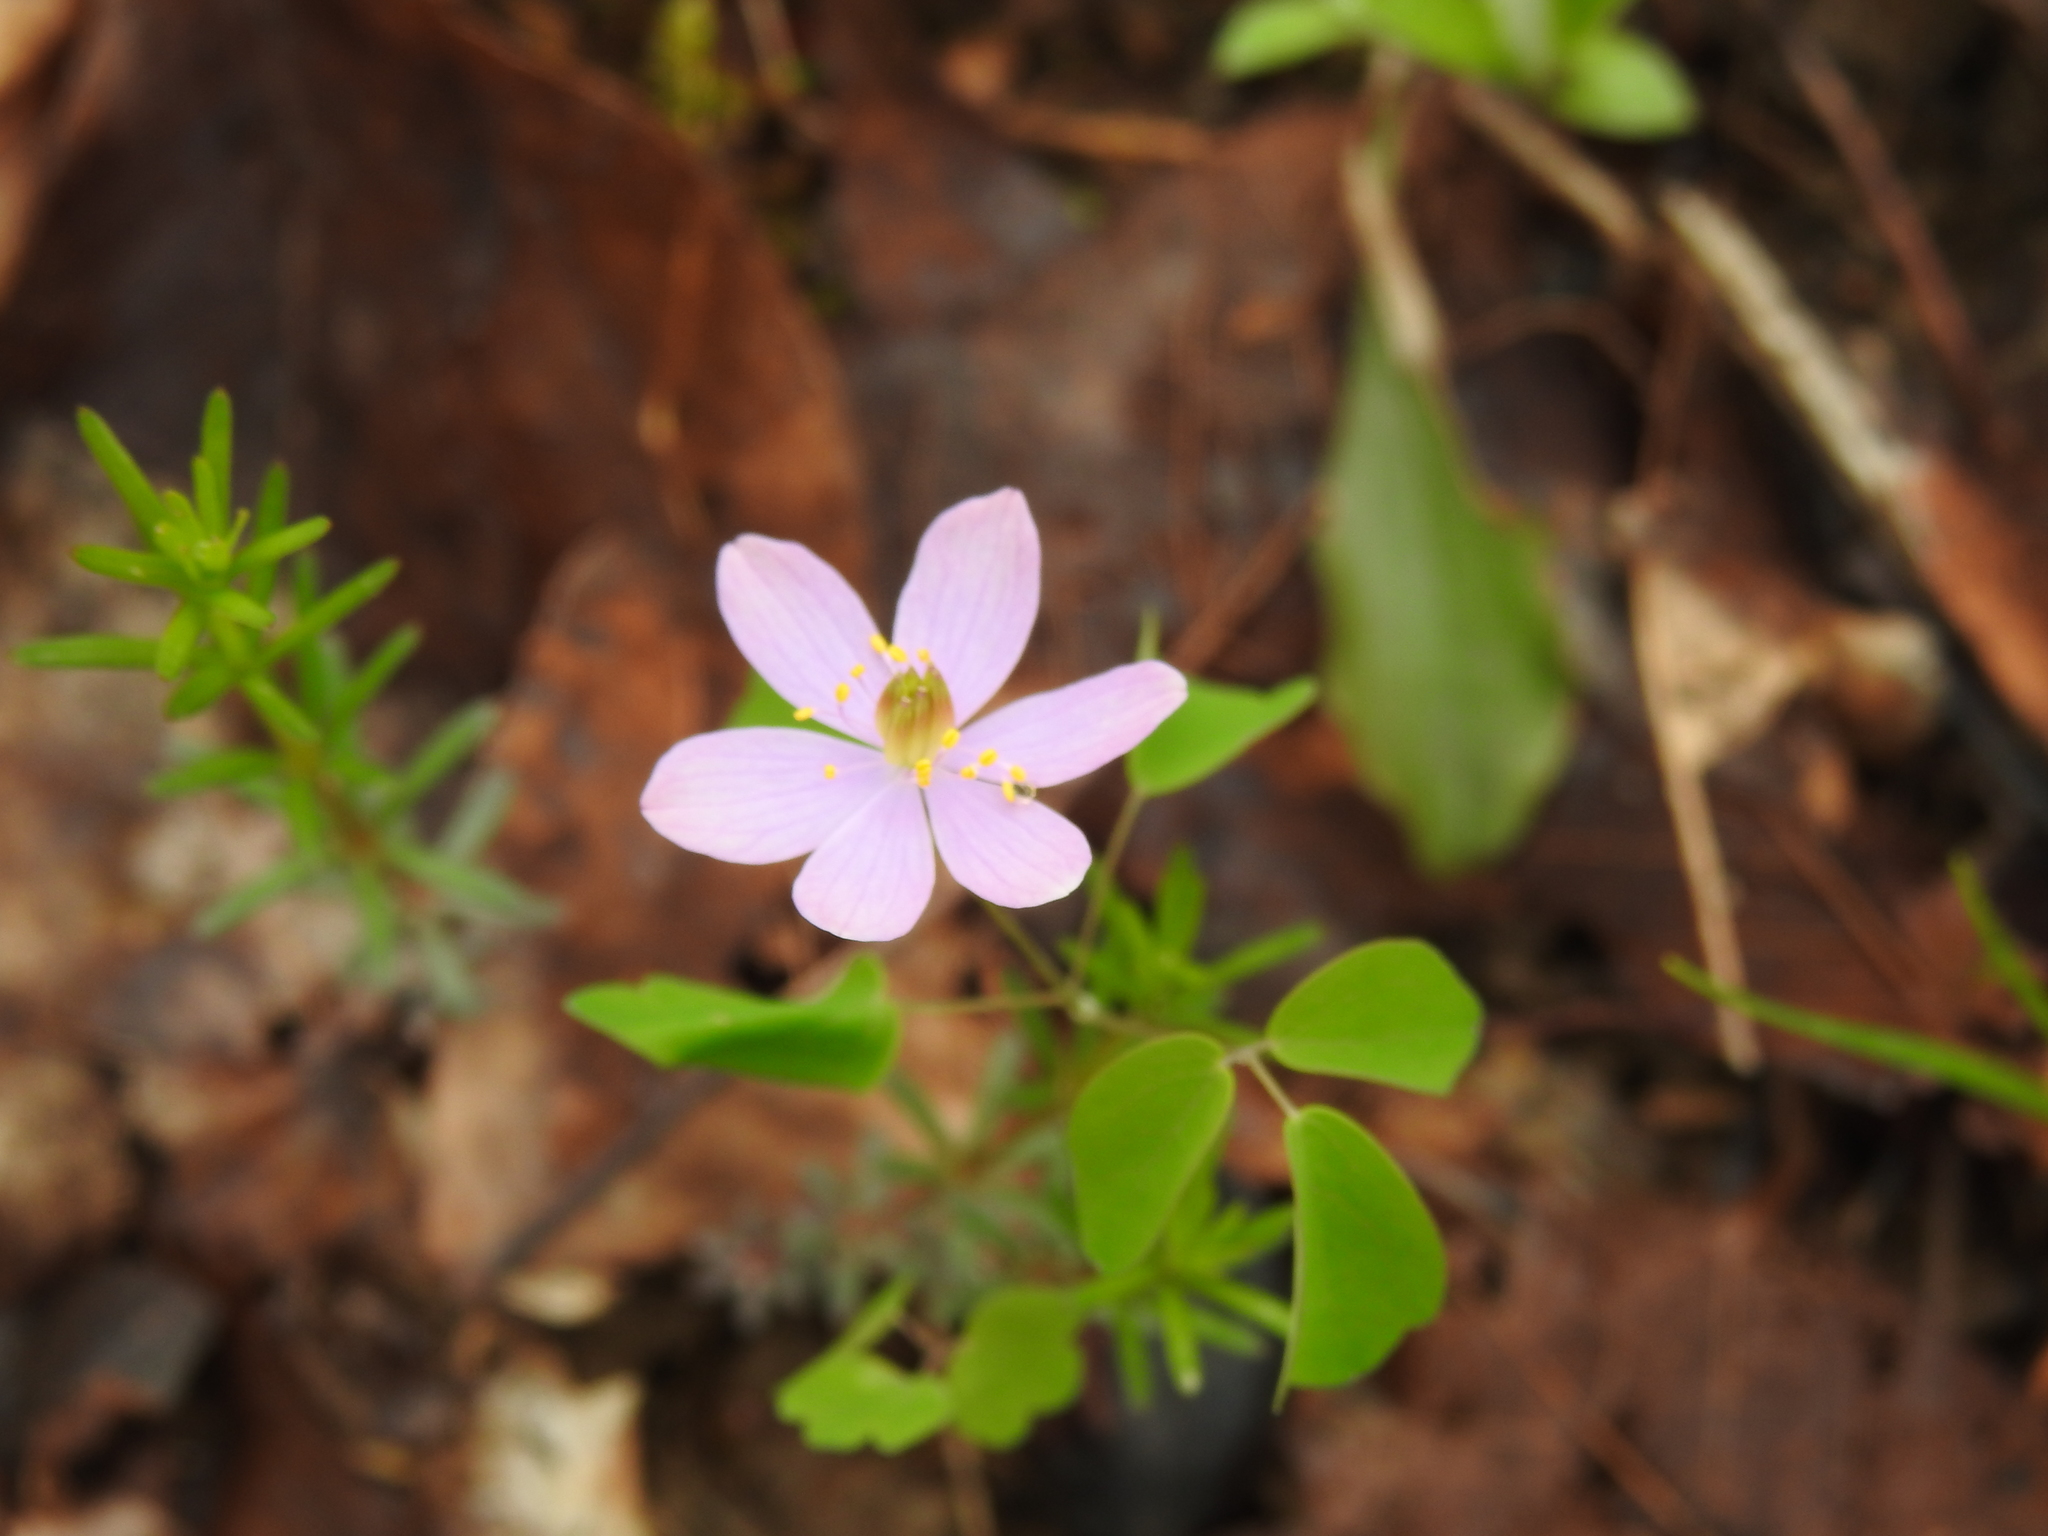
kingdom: Plantae
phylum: Tracheophyta
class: Magnoliopsida
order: Ranunculales
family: Ranunculaceae
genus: Thalictrum
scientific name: Thalictrum thalictroides
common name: Rue-anemone
